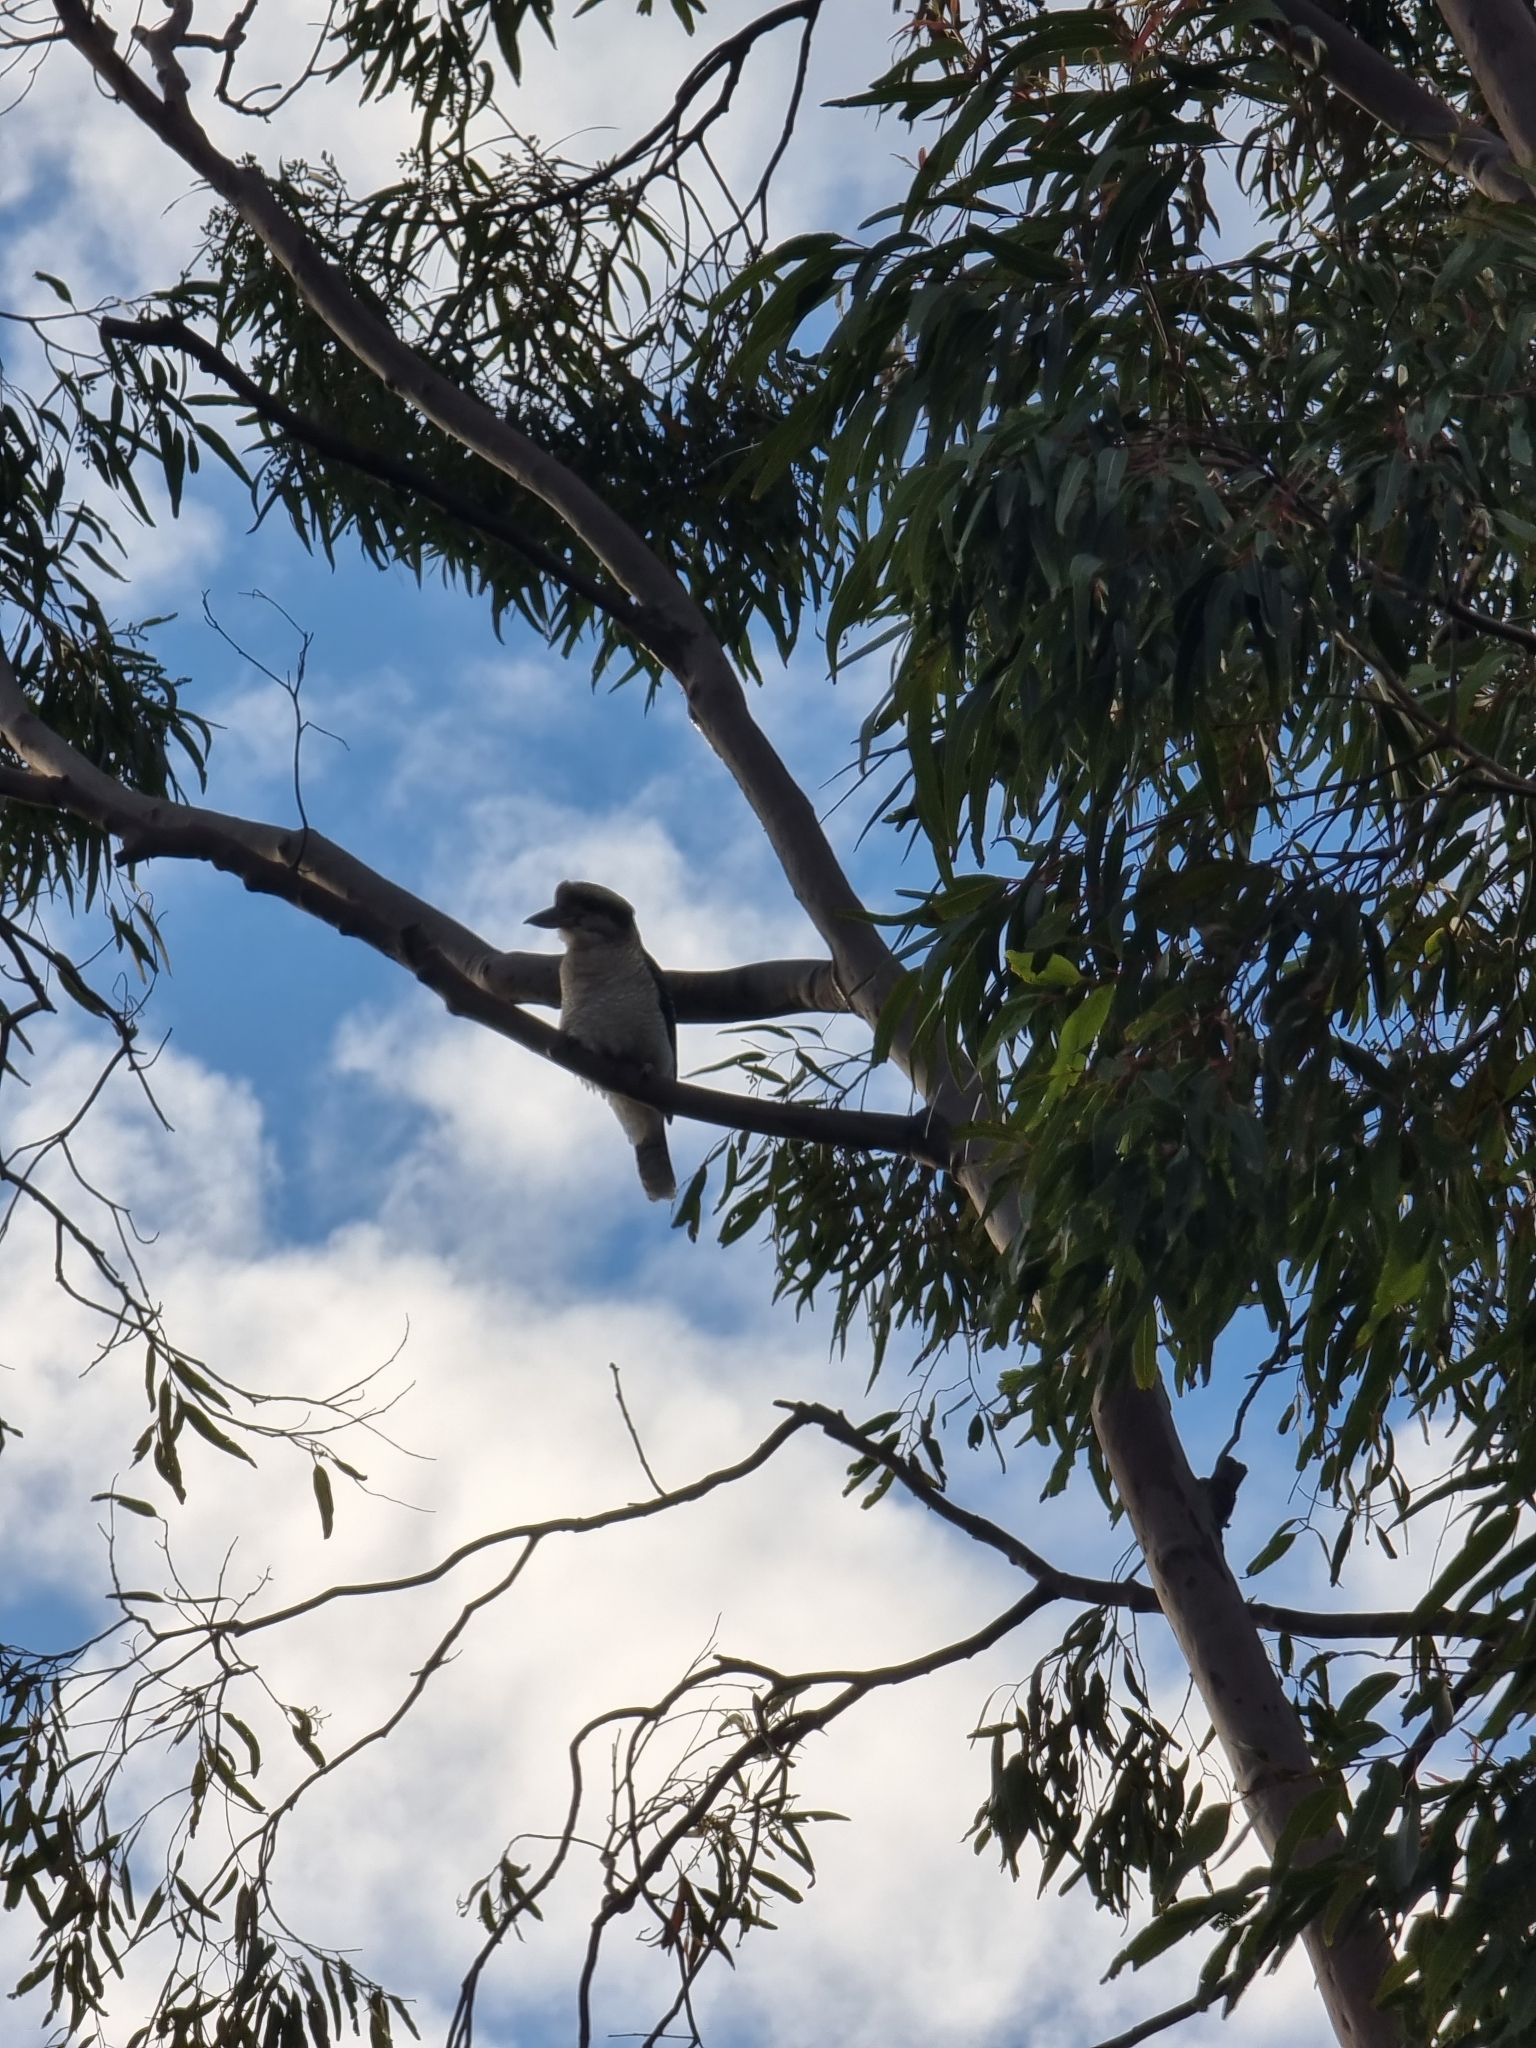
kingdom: Animalia
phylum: Chordata
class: Aves
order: Coraciiformes
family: Alcedinidae
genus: Dacelo
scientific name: Dacelo novaeguineae
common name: Laughing kookaburra
